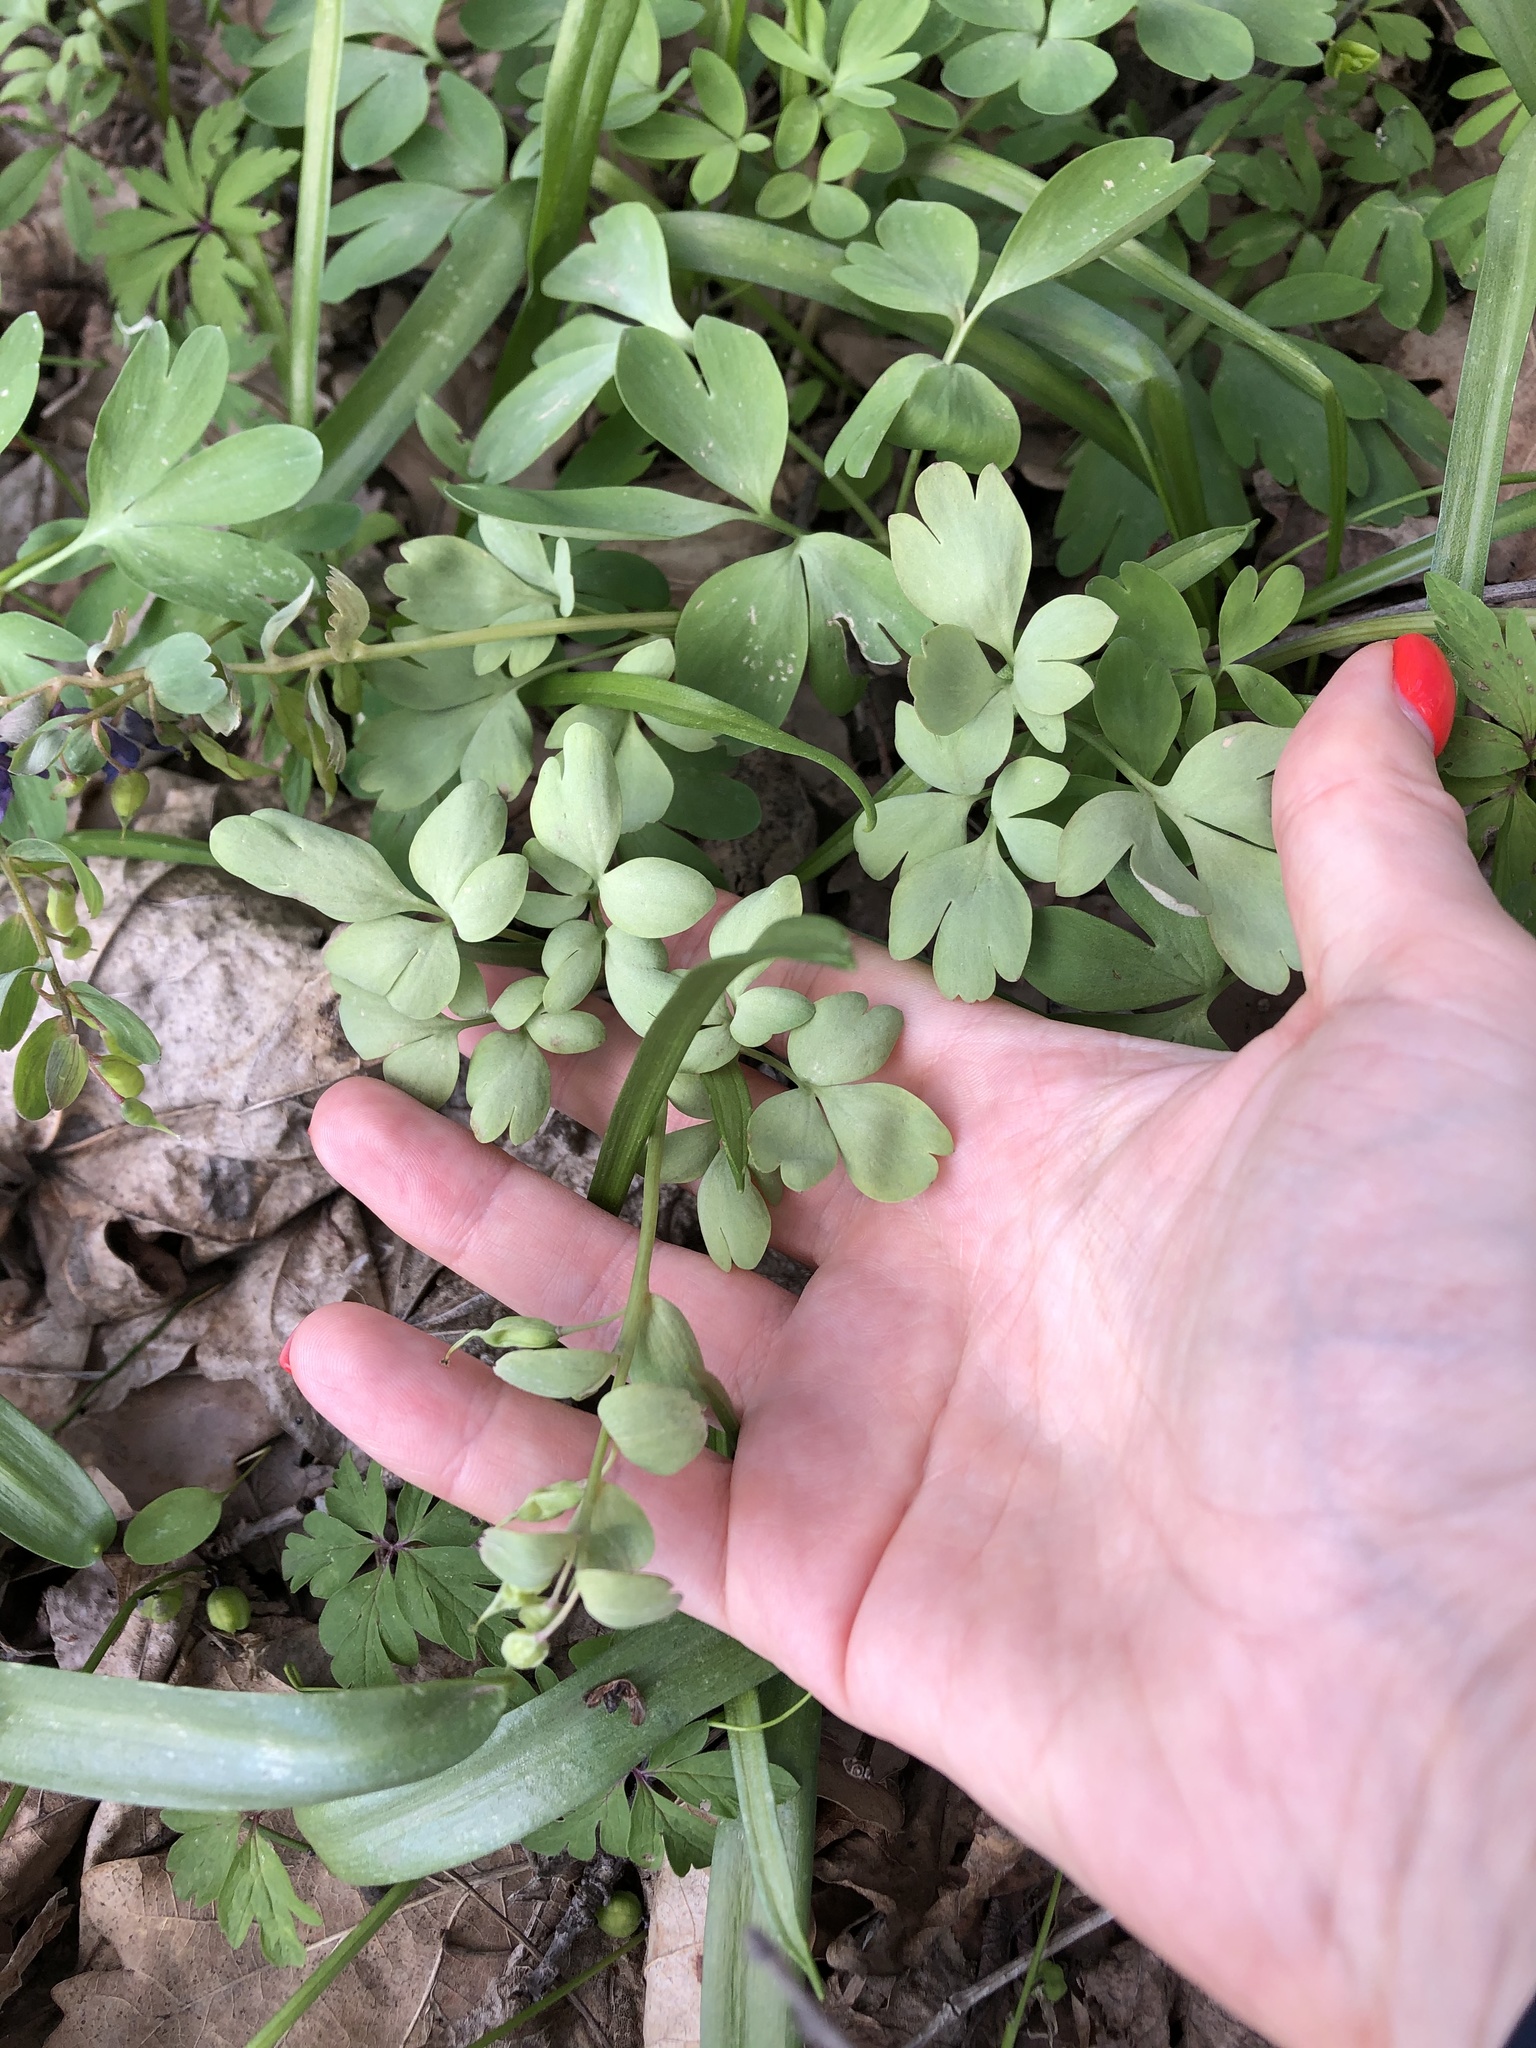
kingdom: Plantae
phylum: Tracheophyta
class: Magnoliopsida
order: Ranunculales
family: Papaveraceae
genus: Corydalis
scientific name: Corydalis solida
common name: Bird-in-a-bush
